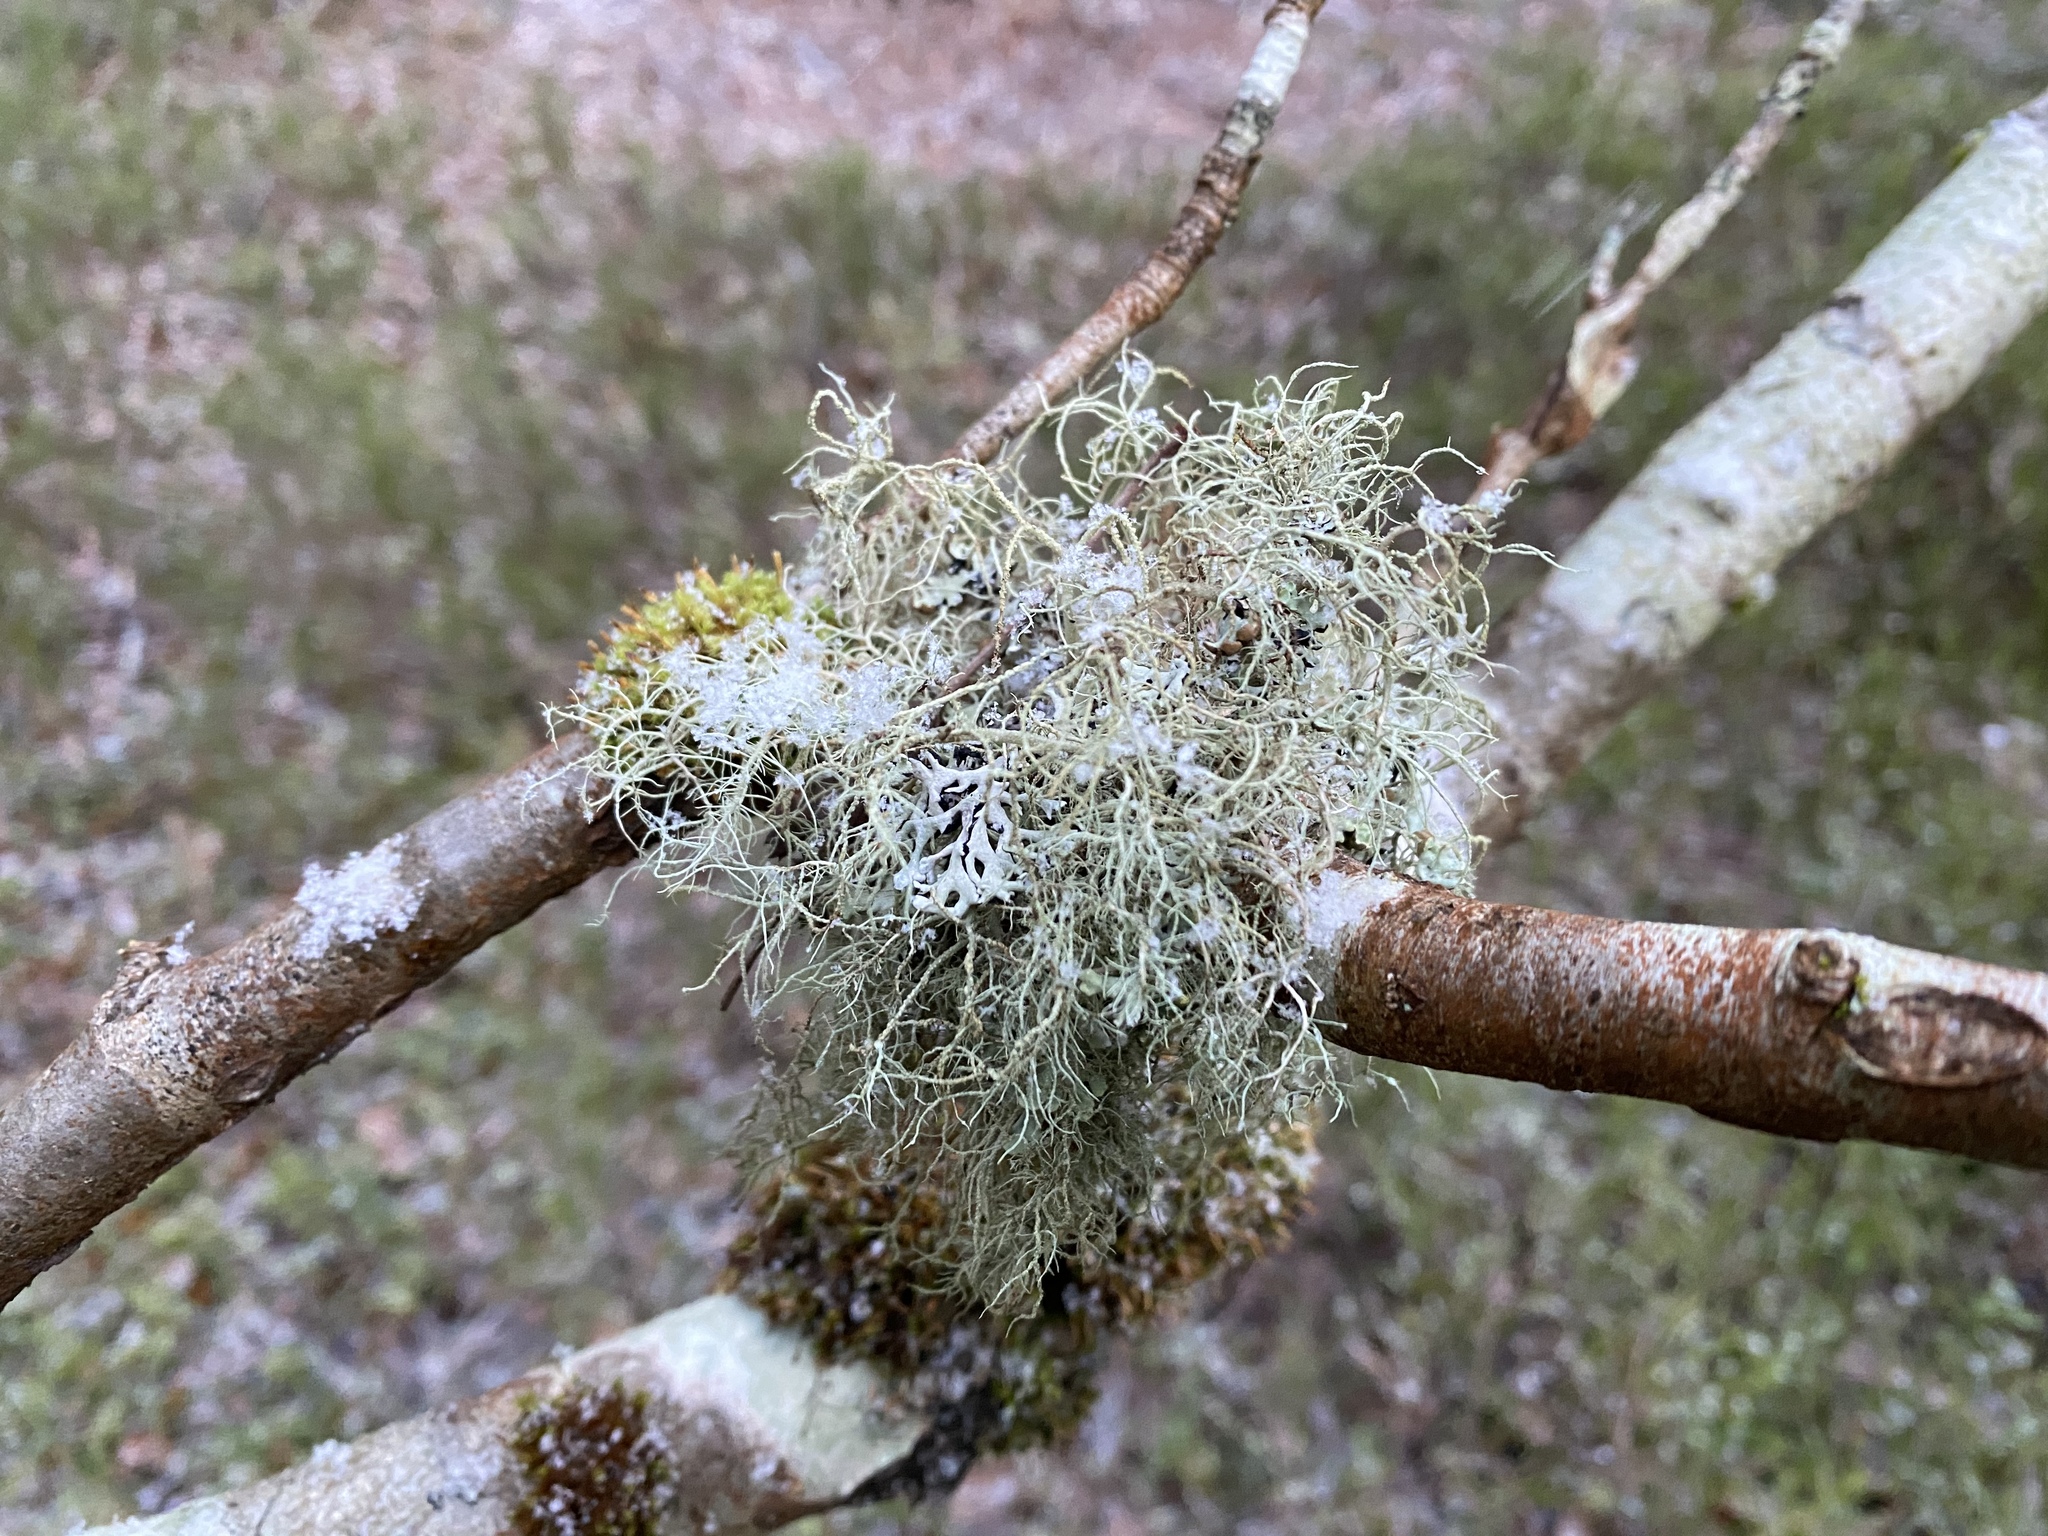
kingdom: Fungi
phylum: Ascomycota
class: Lecanoromycetes
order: Lecanorales
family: Parmeliaceae
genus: Usnea
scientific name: Usnea
